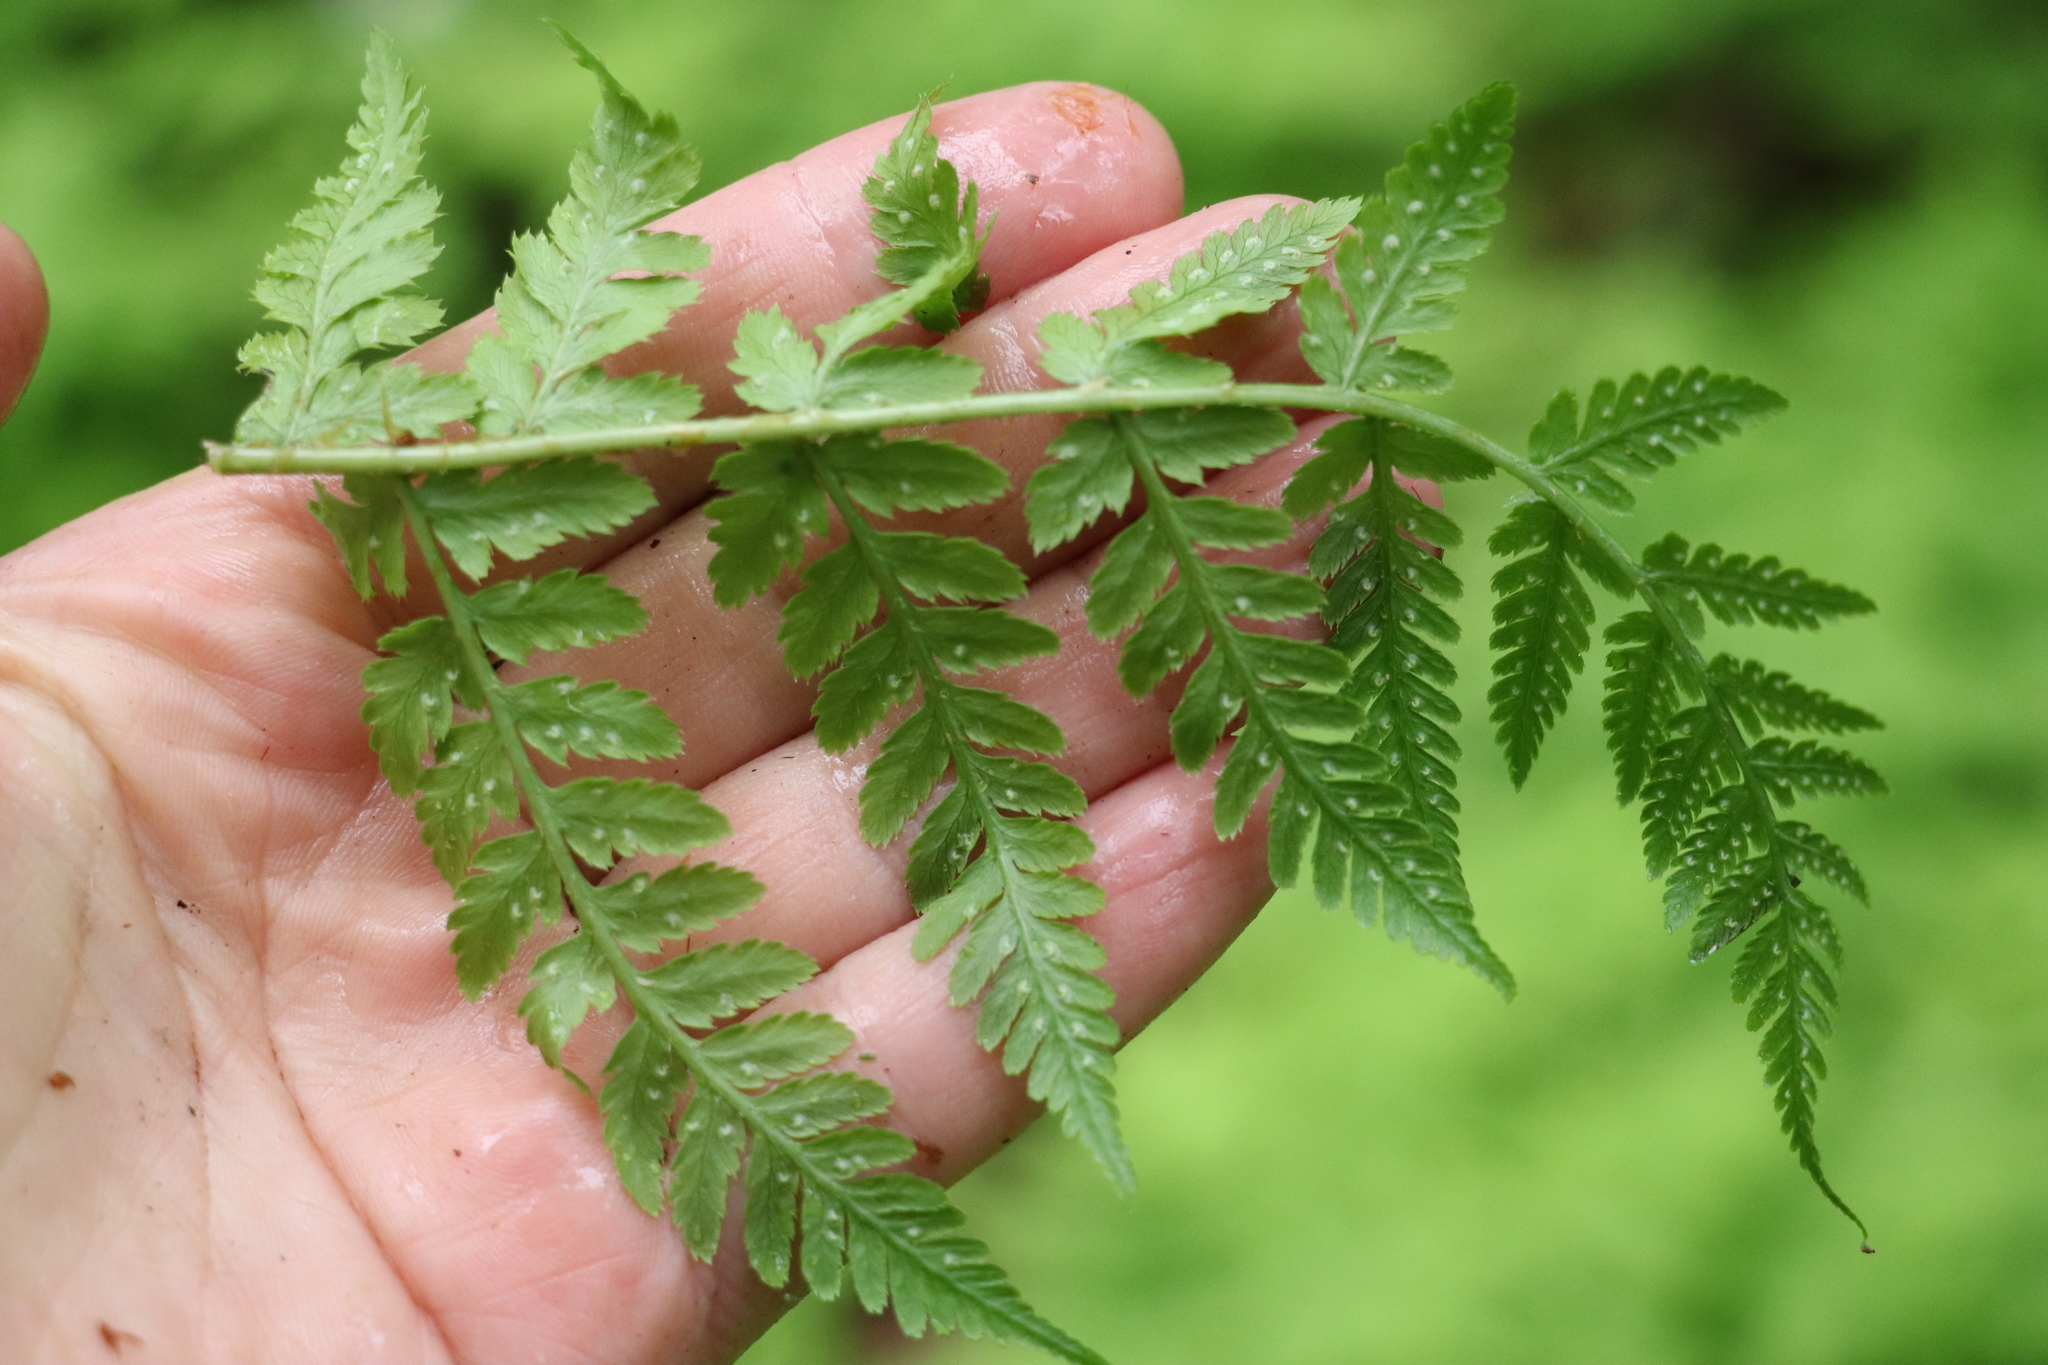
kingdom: Plantae
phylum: Tracheophyta
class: Polypodiopsida
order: Polypodiales
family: Dryopteridaceae
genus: Dryopteris
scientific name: Dryopteris expansa
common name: Northern buckler fern
